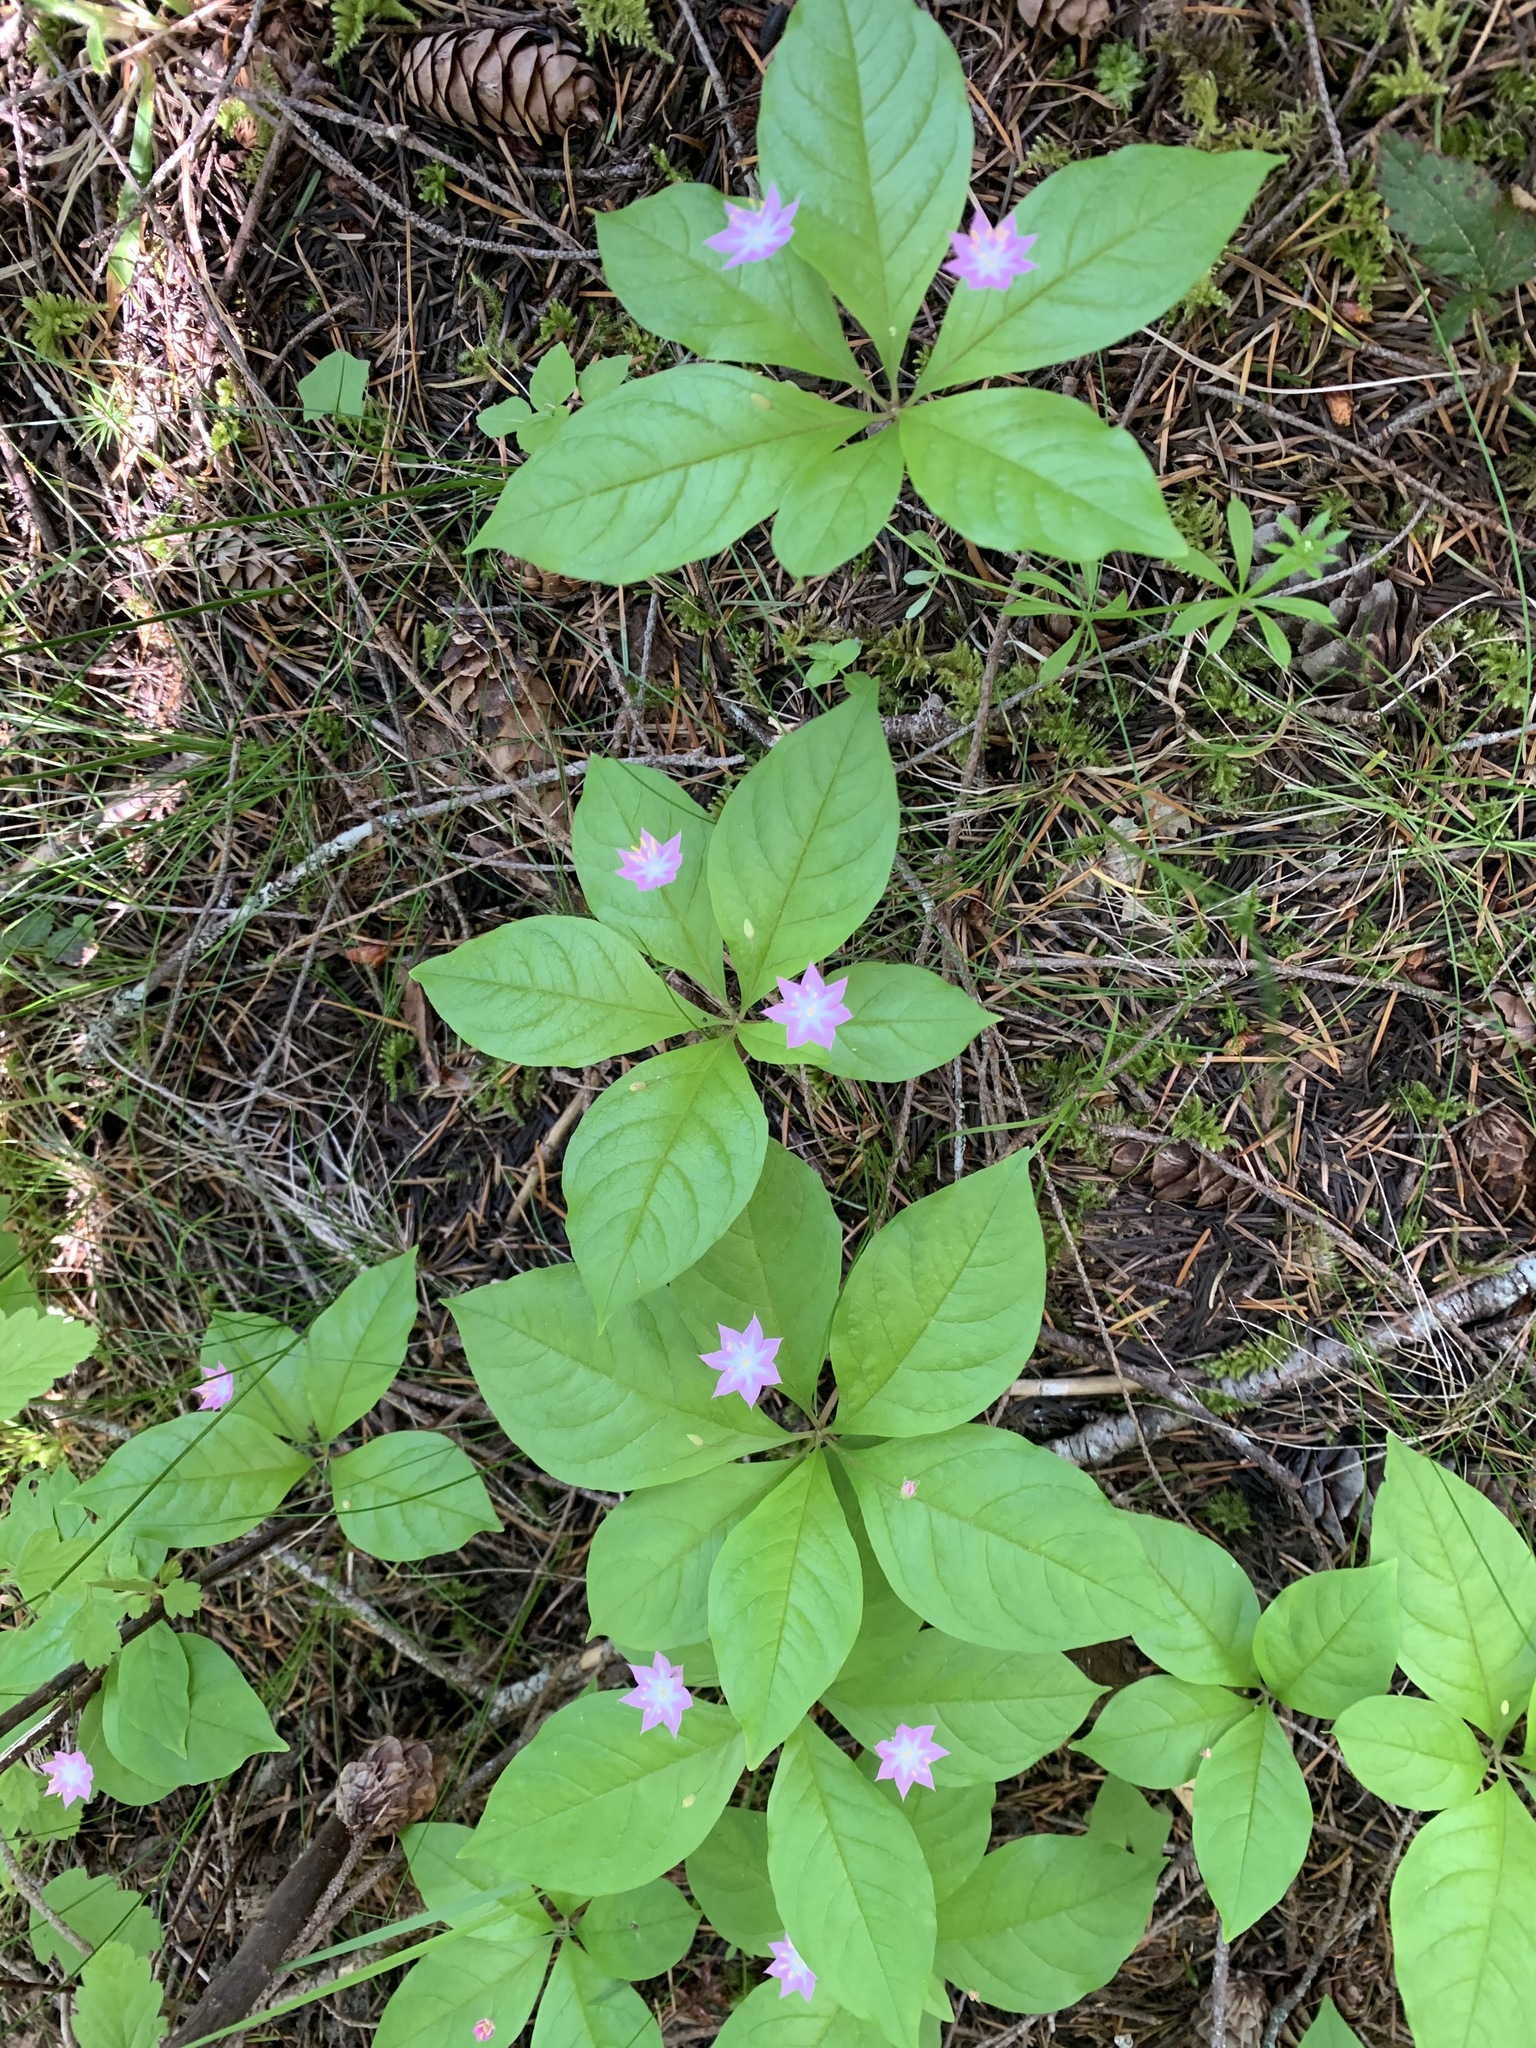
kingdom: Plantae
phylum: Tracheophyta
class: Magnoliopsida
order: Ericales
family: Primulaceae
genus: Lysimachia
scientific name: Lysimachia latifolia
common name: Pacific starflower
